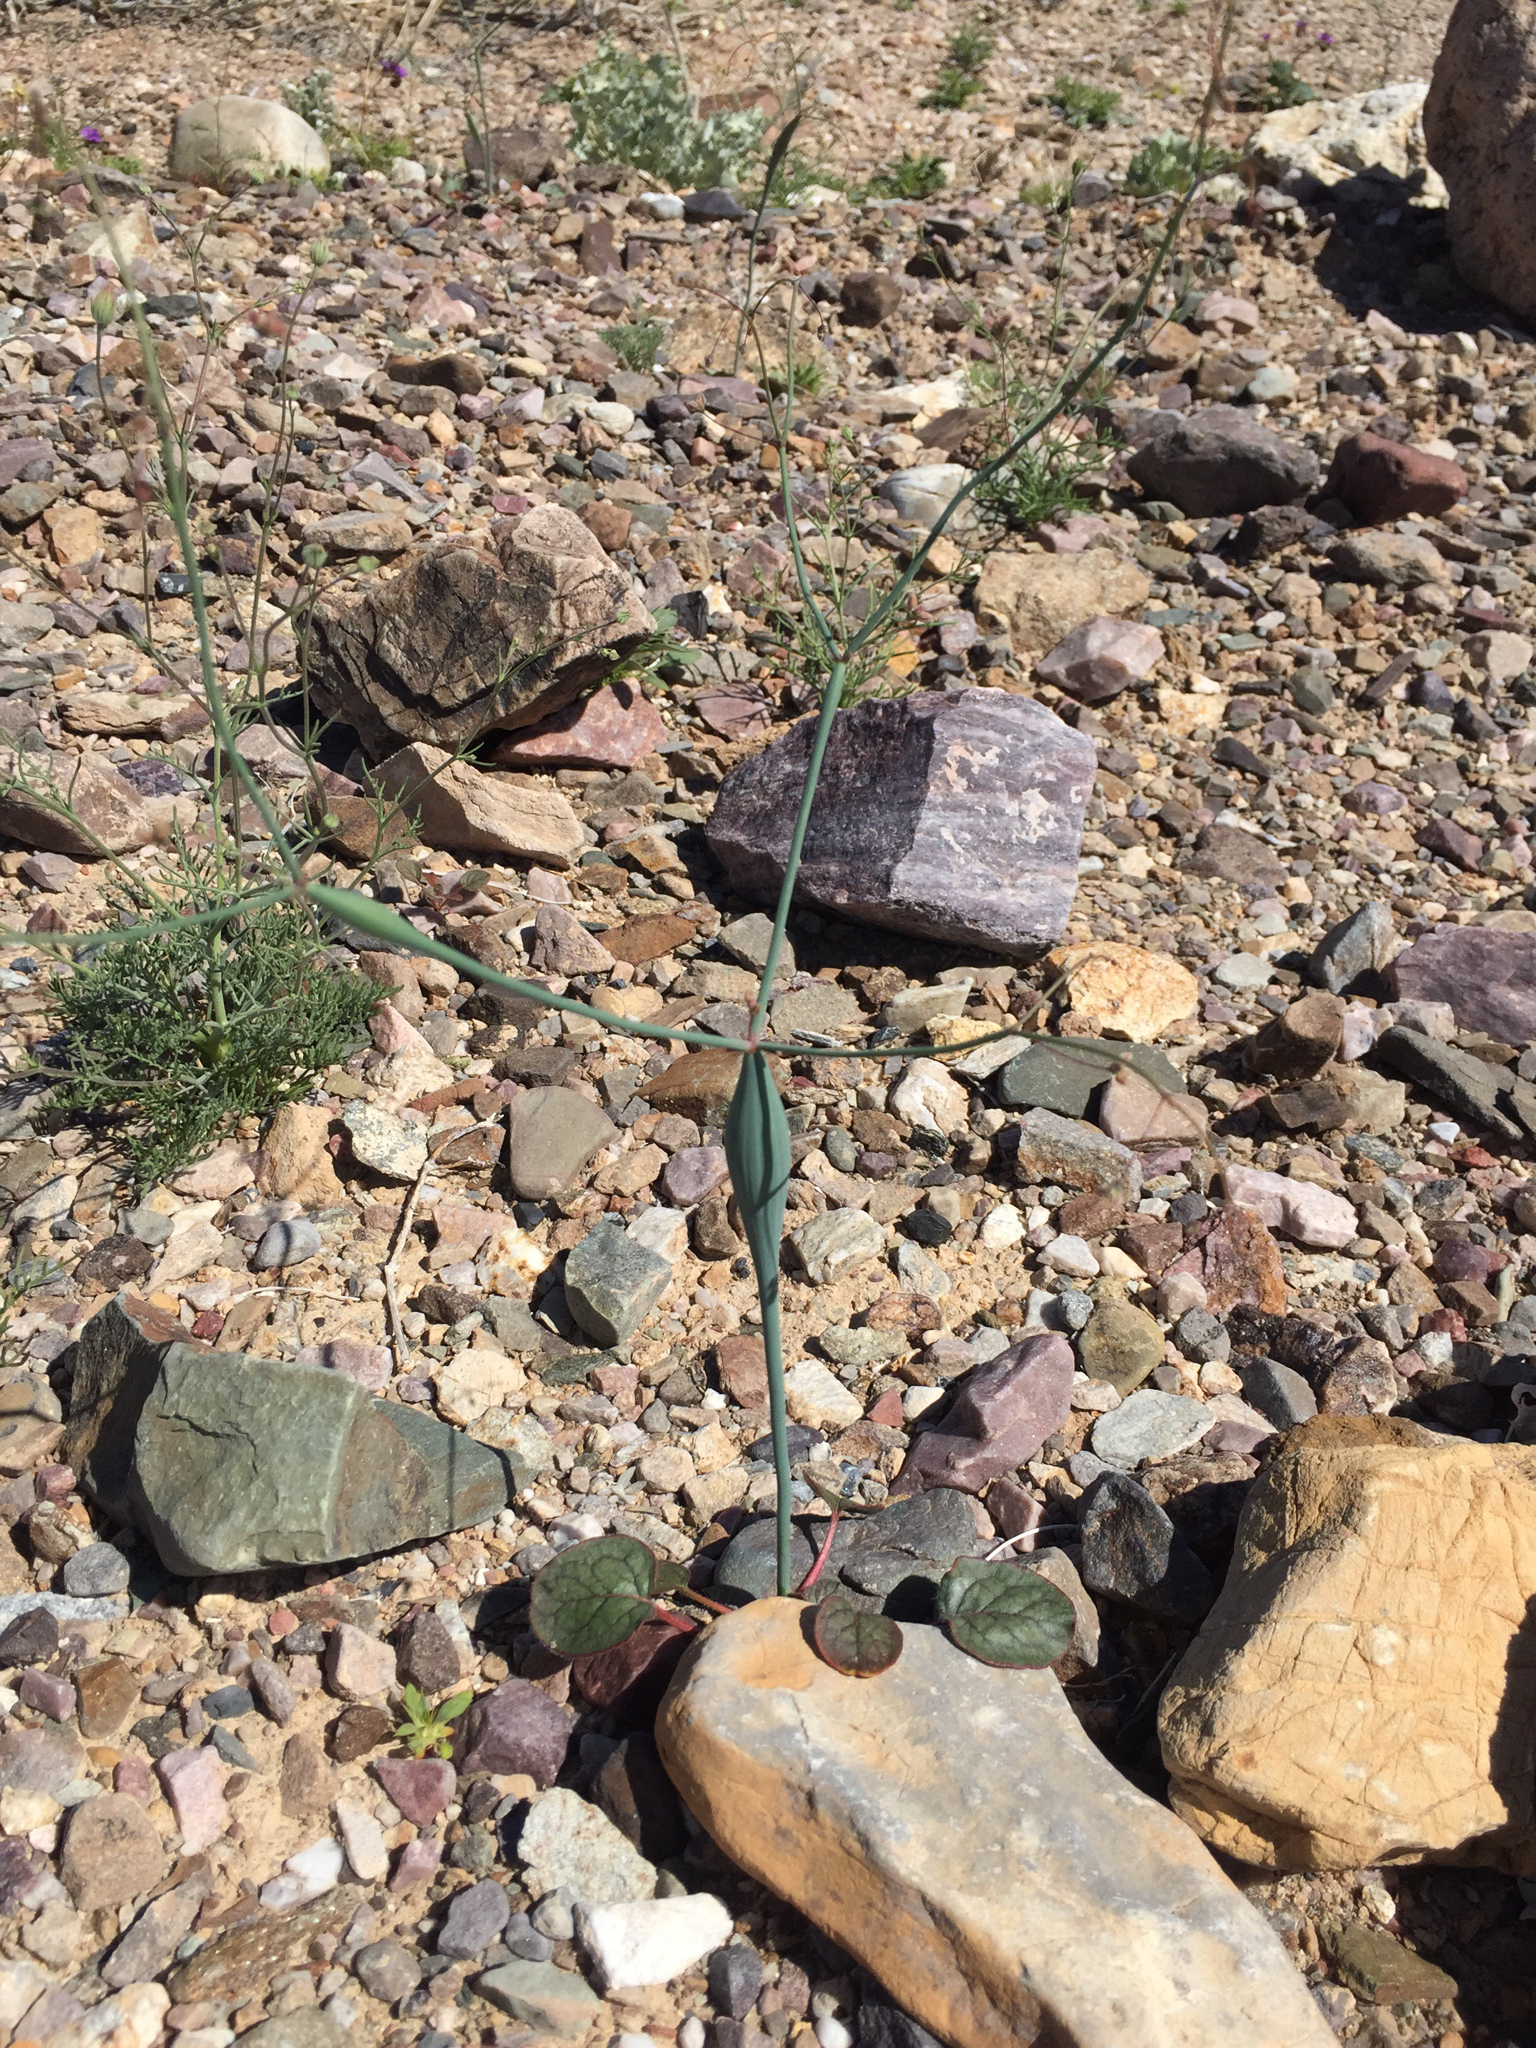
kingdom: Plantae
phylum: Tracheophyta
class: Magnoliopsida
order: Caryophyllales
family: Polygonaceae
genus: Eriogonum
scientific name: Eriogonum inflatum
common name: Desert trumpet
